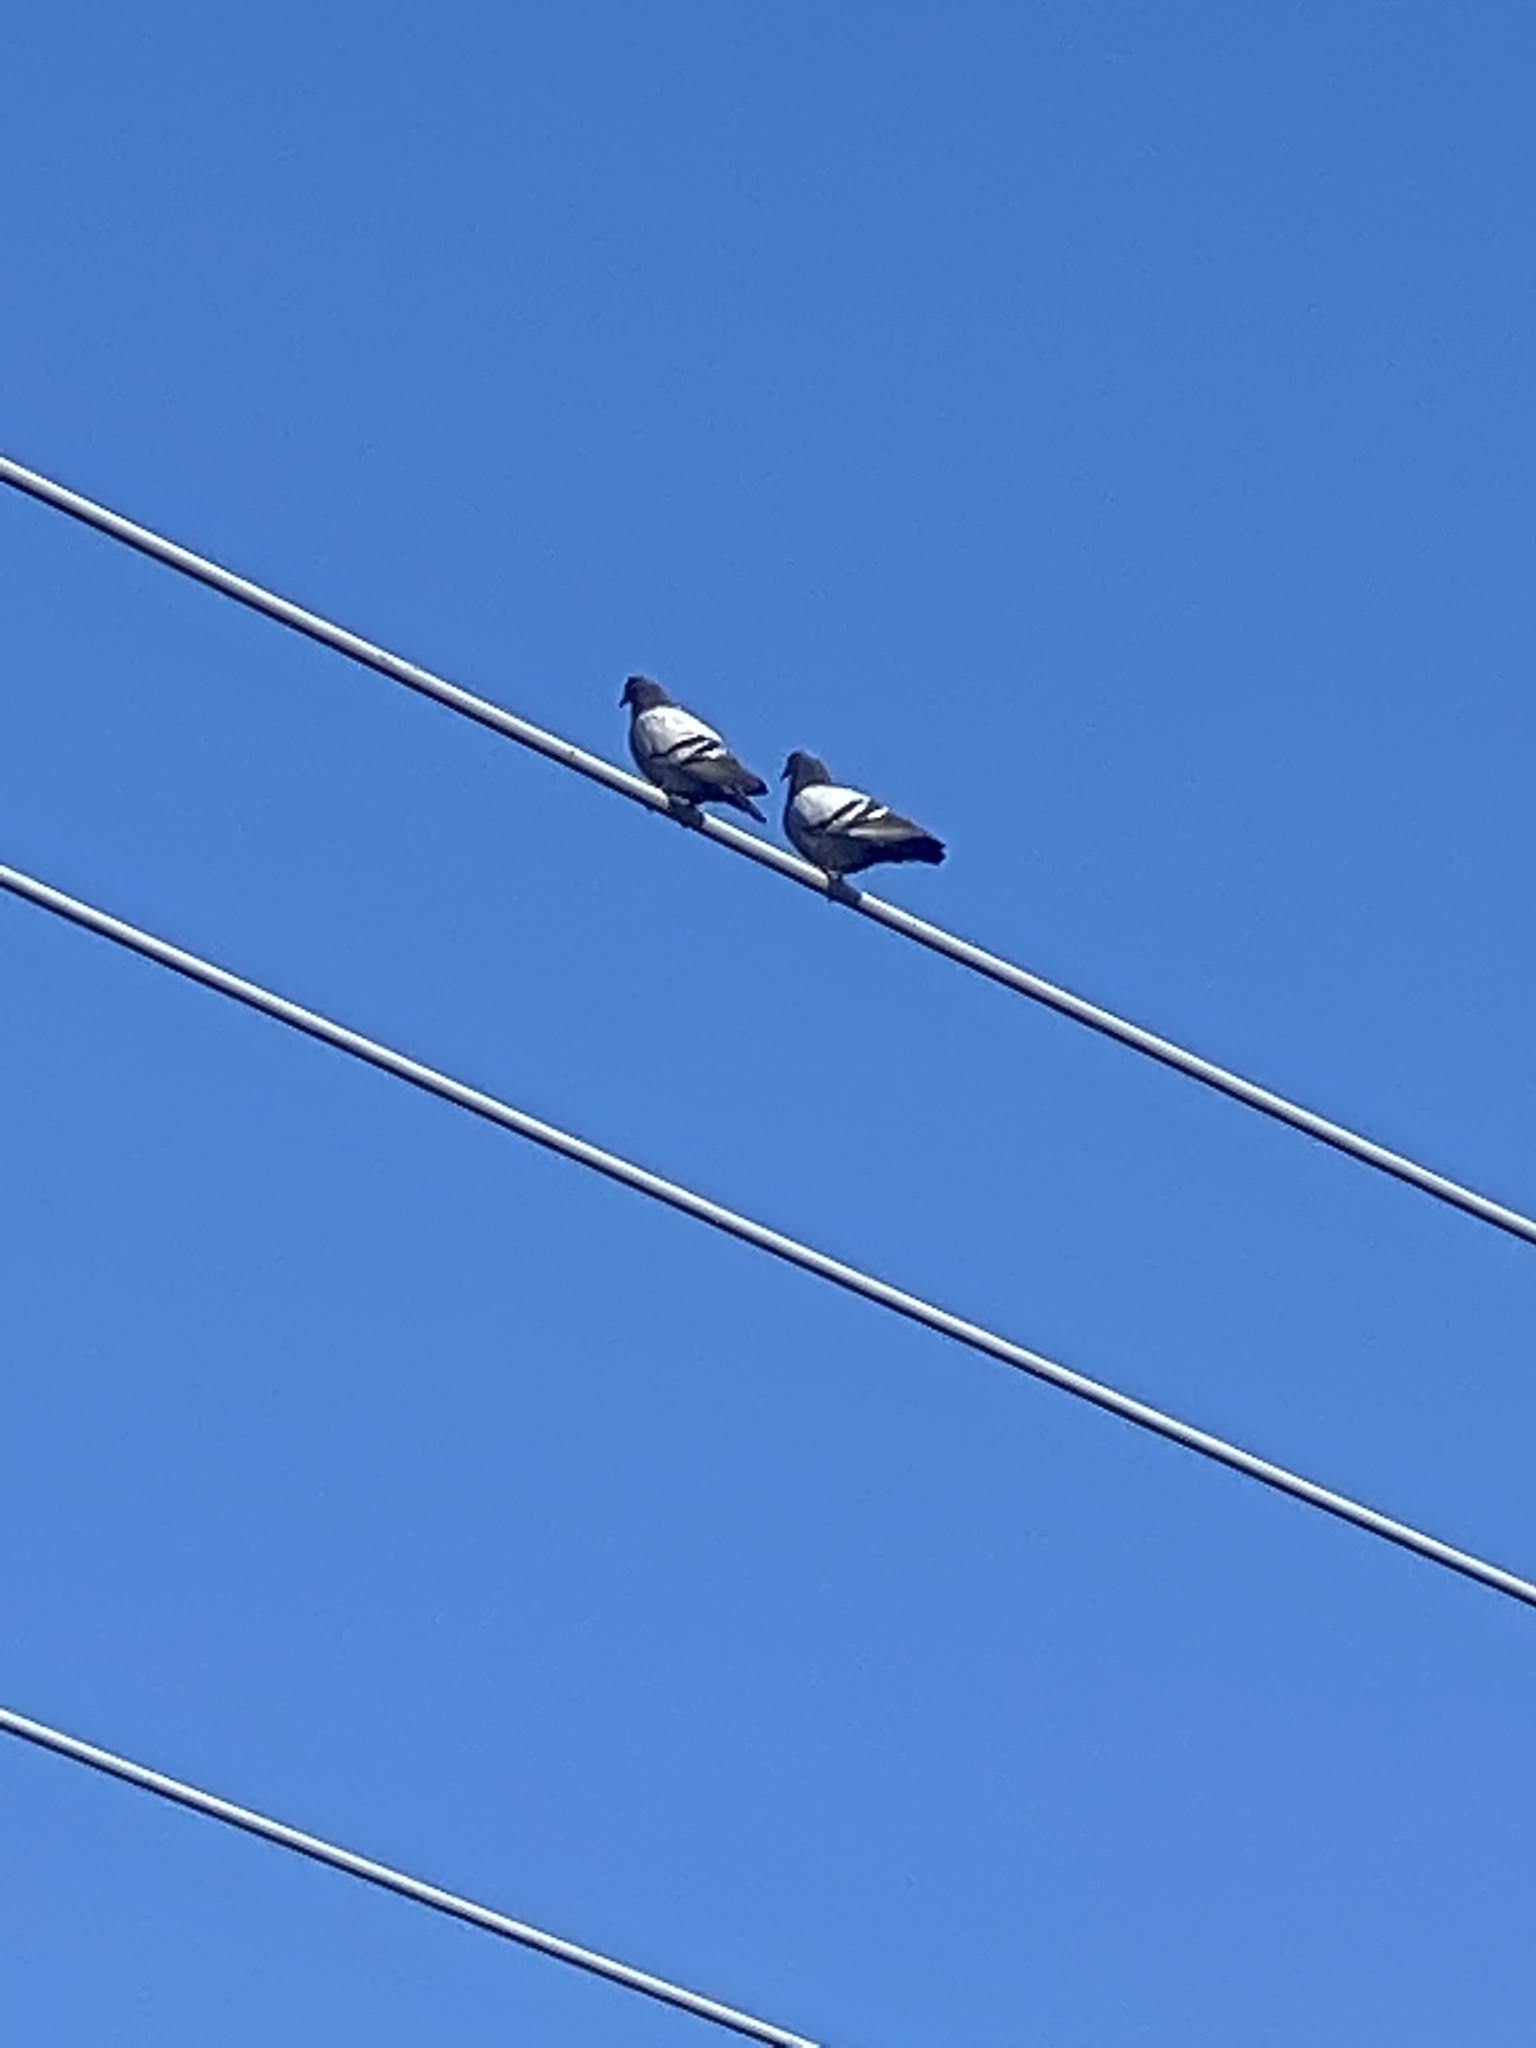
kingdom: Animalia
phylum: Chordata
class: Aves
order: Columbiformes
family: Columbidae
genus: Columba
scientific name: Columba livia
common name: Rock pigeon
